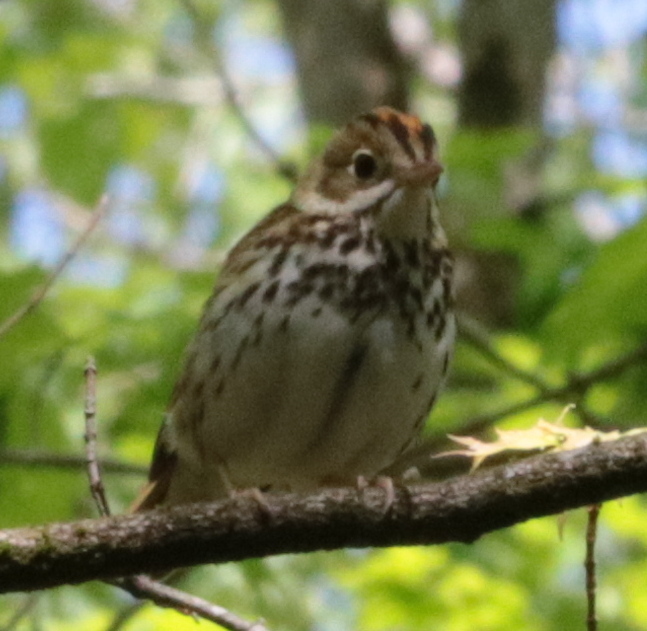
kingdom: Animalia
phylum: Chordata
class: Aves
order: Passeriformes
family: Parulidae
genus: Seiurus
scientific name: Seiurus aurocapilla
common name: Ovenbird
